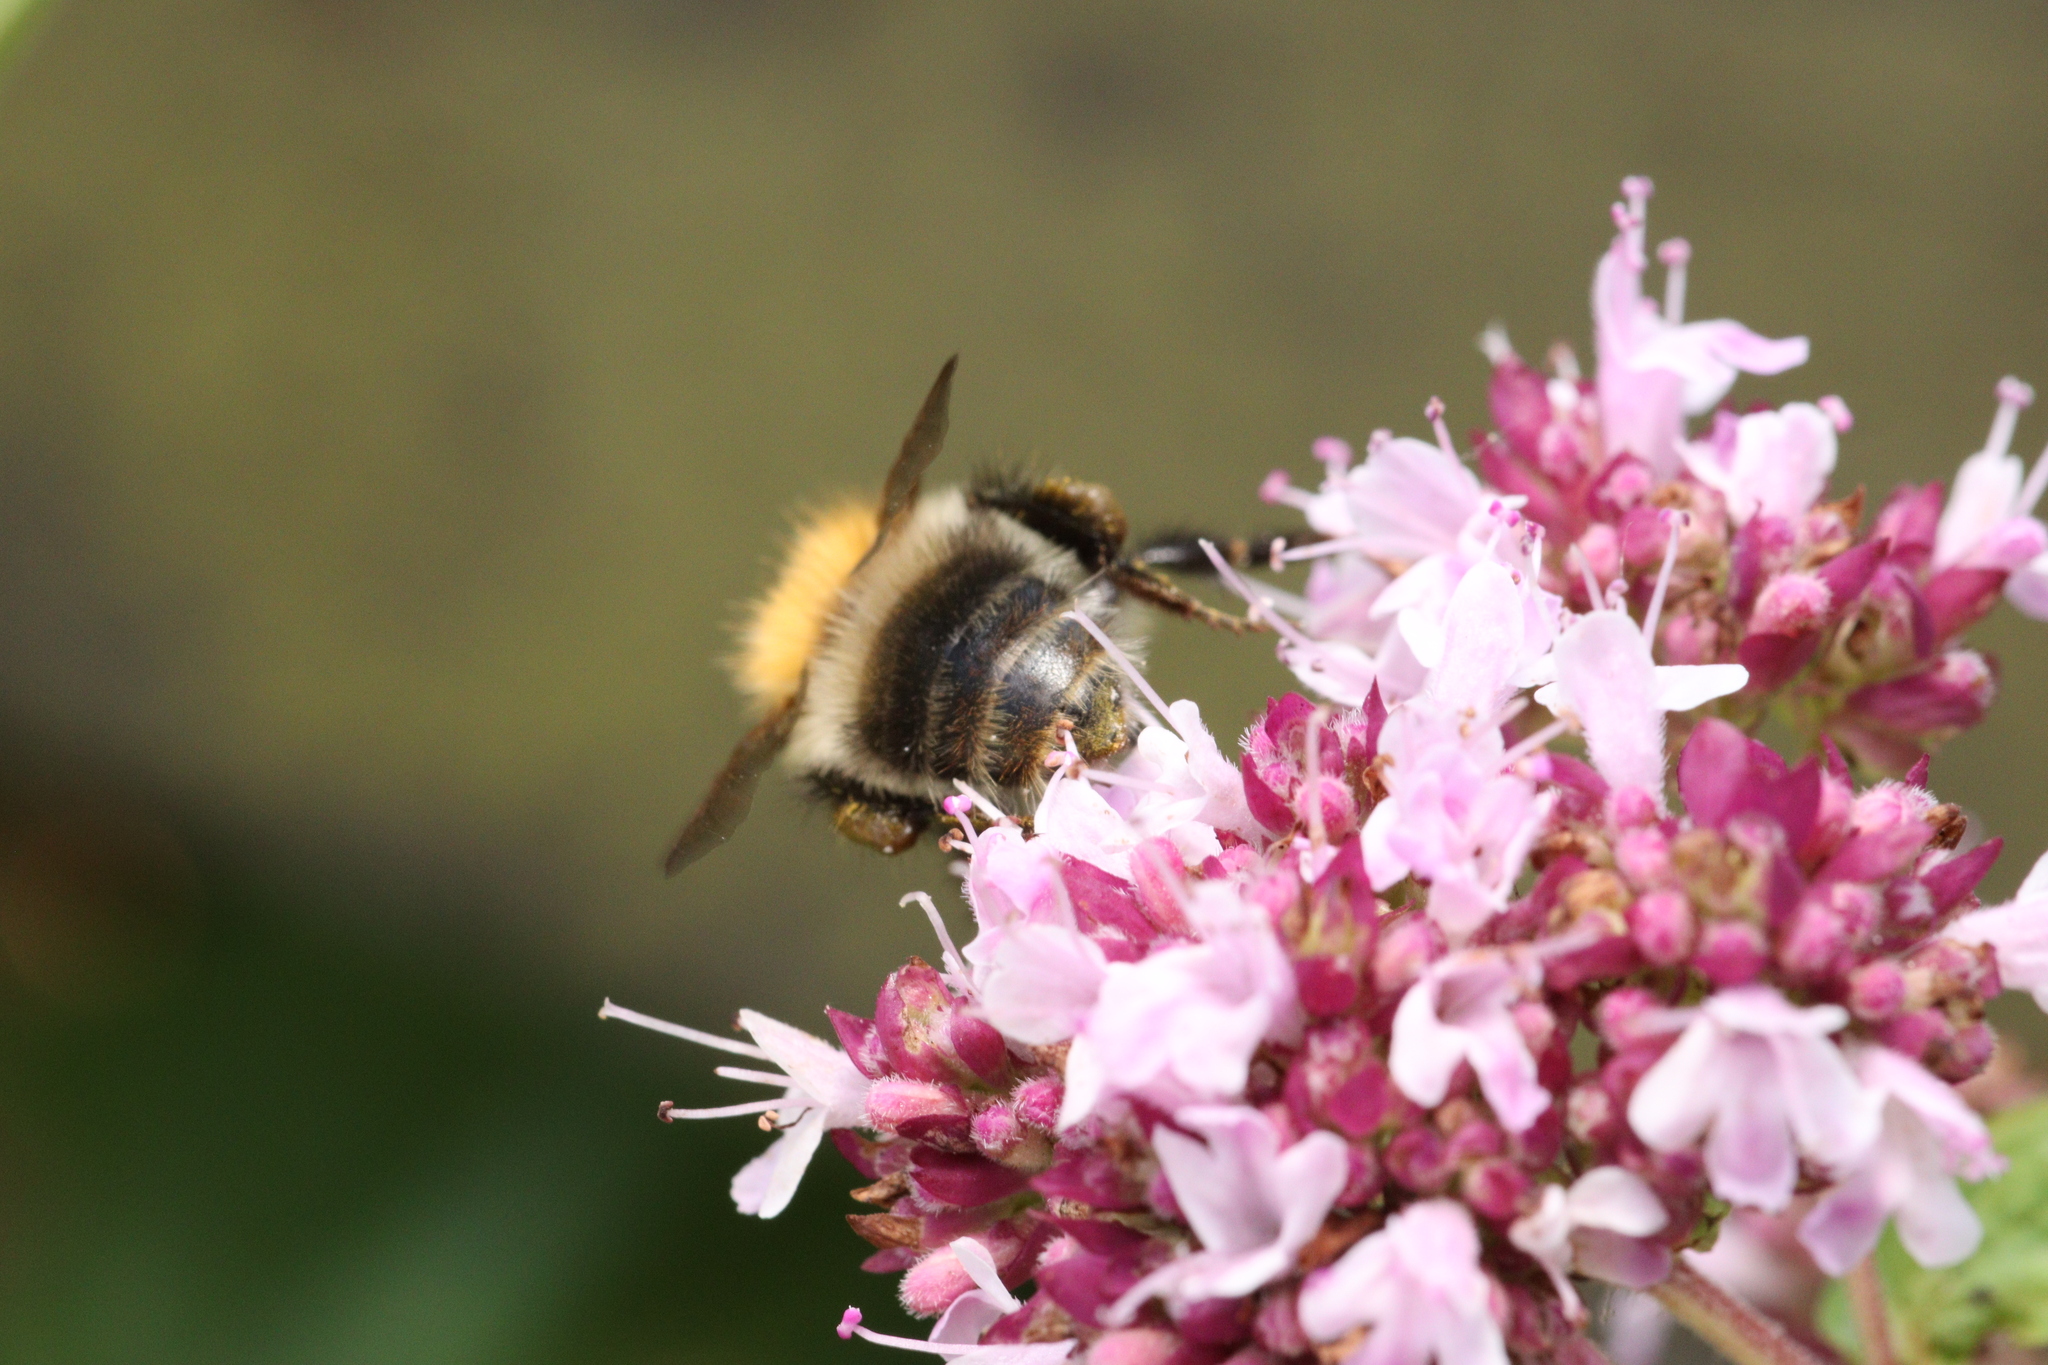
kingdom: Animalia
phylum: Arthropoda
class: Insecta
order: Hymenoptera
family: Apidae
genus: Bombus
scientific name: Bombus pascuorum
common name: Common carder bee
